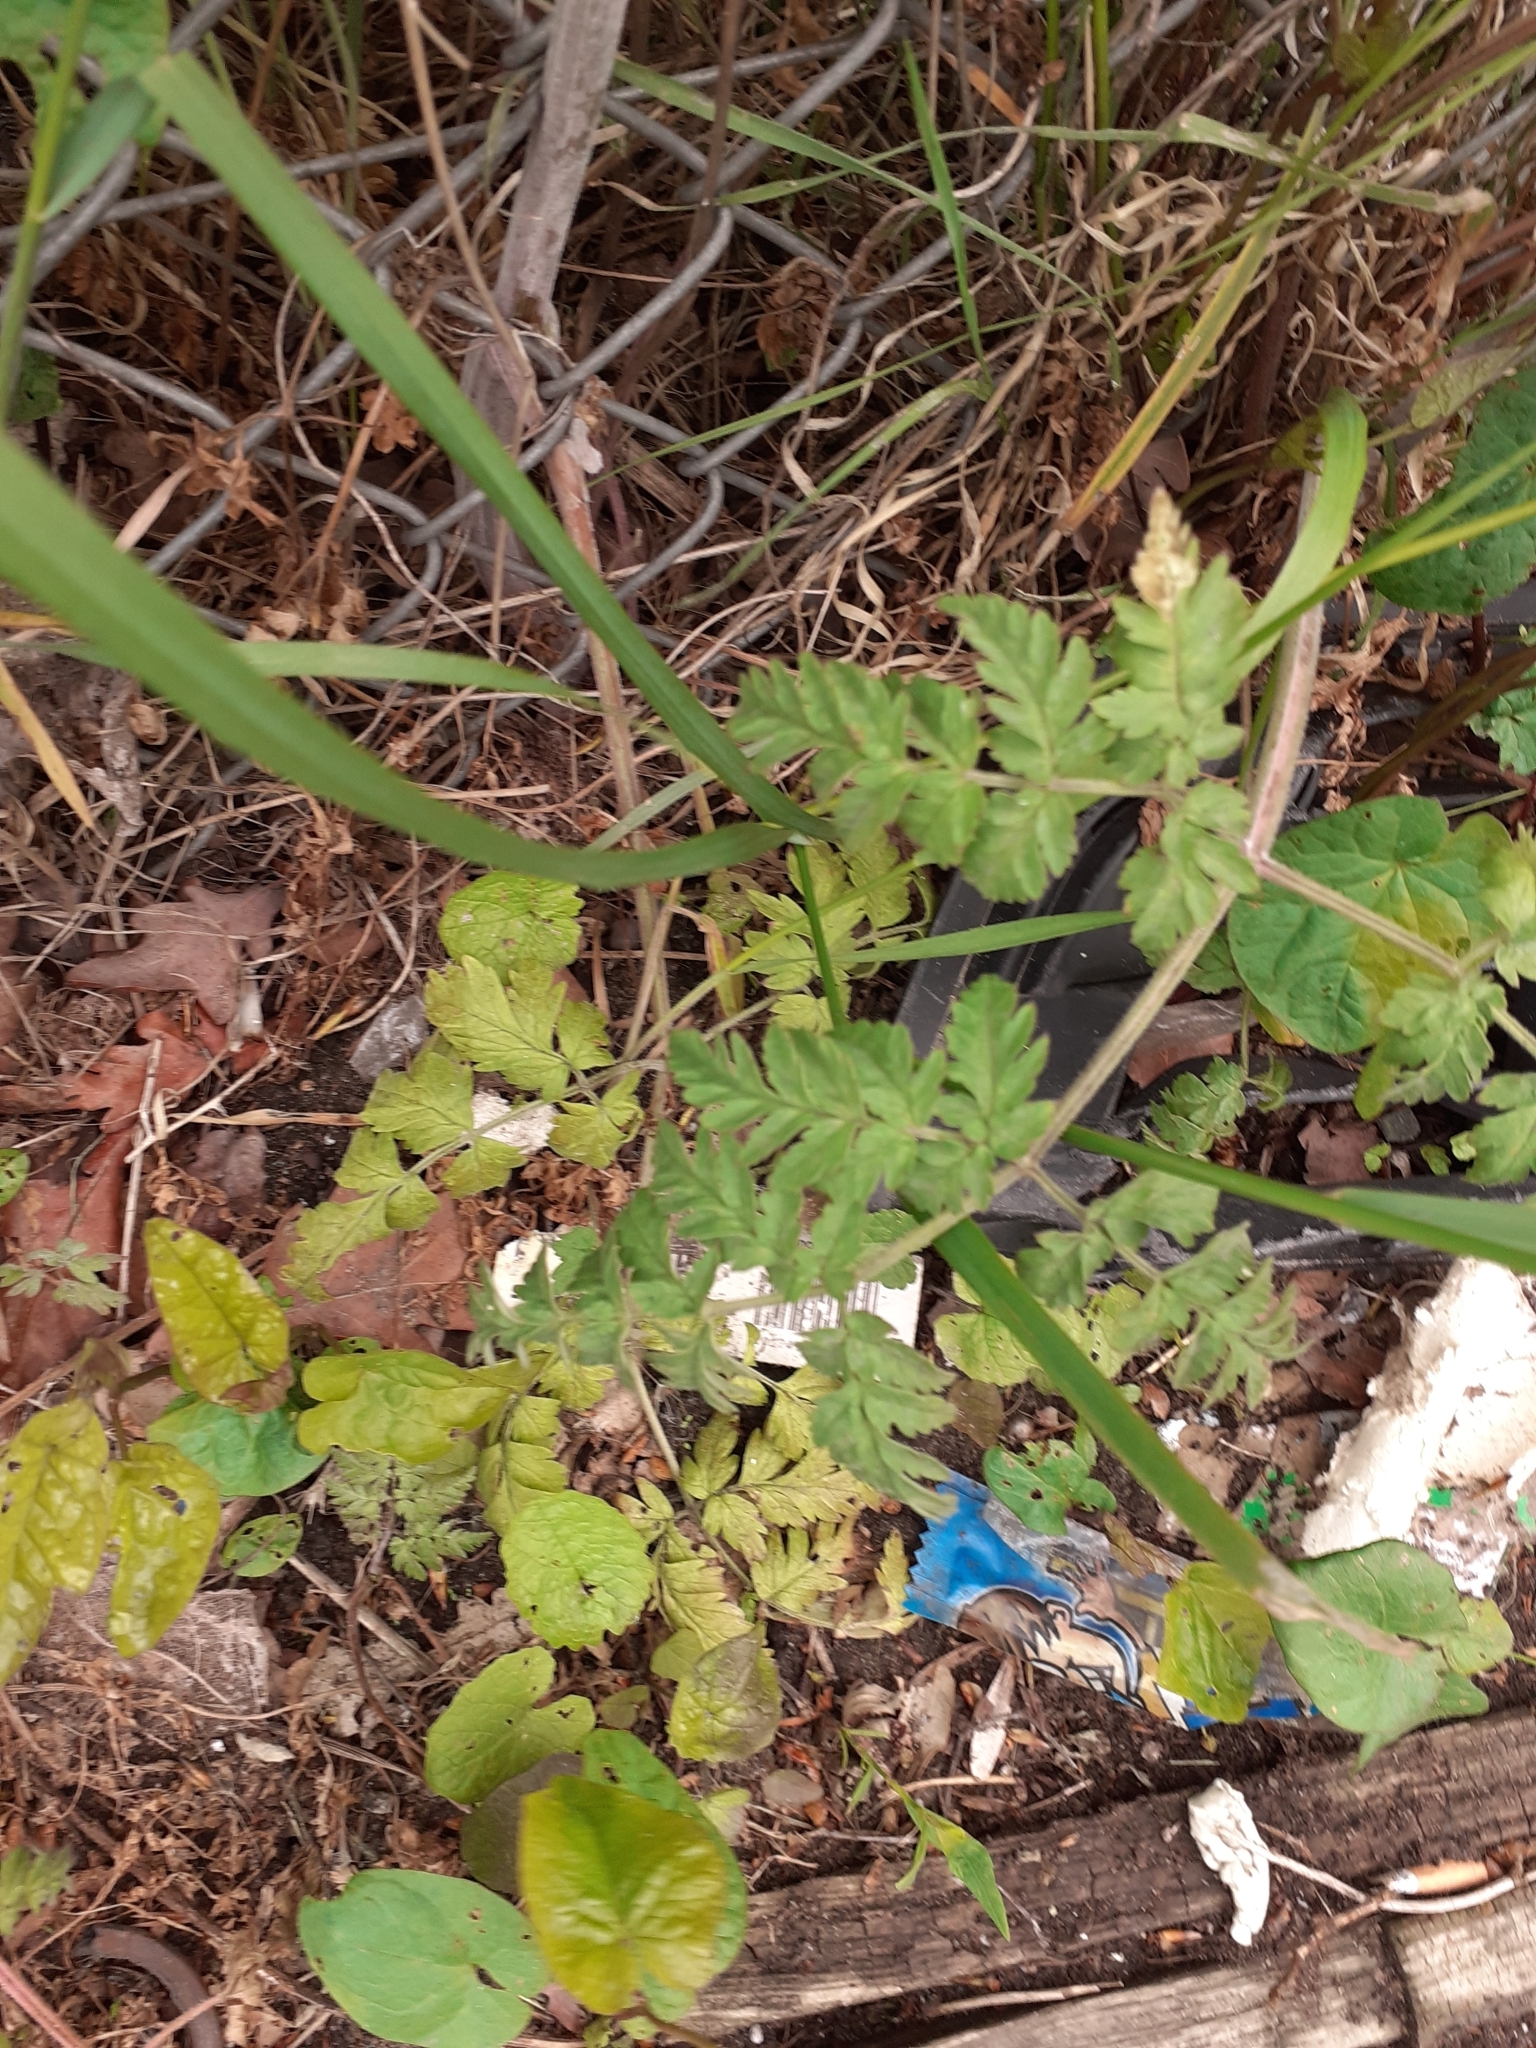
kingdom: Plantae
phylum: Tracheophyta
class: Magnoliopsida
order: Apiales
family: Apiaceae
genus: Anthriscus
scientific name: Anthriscus sylvestris
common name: Cow parsley
